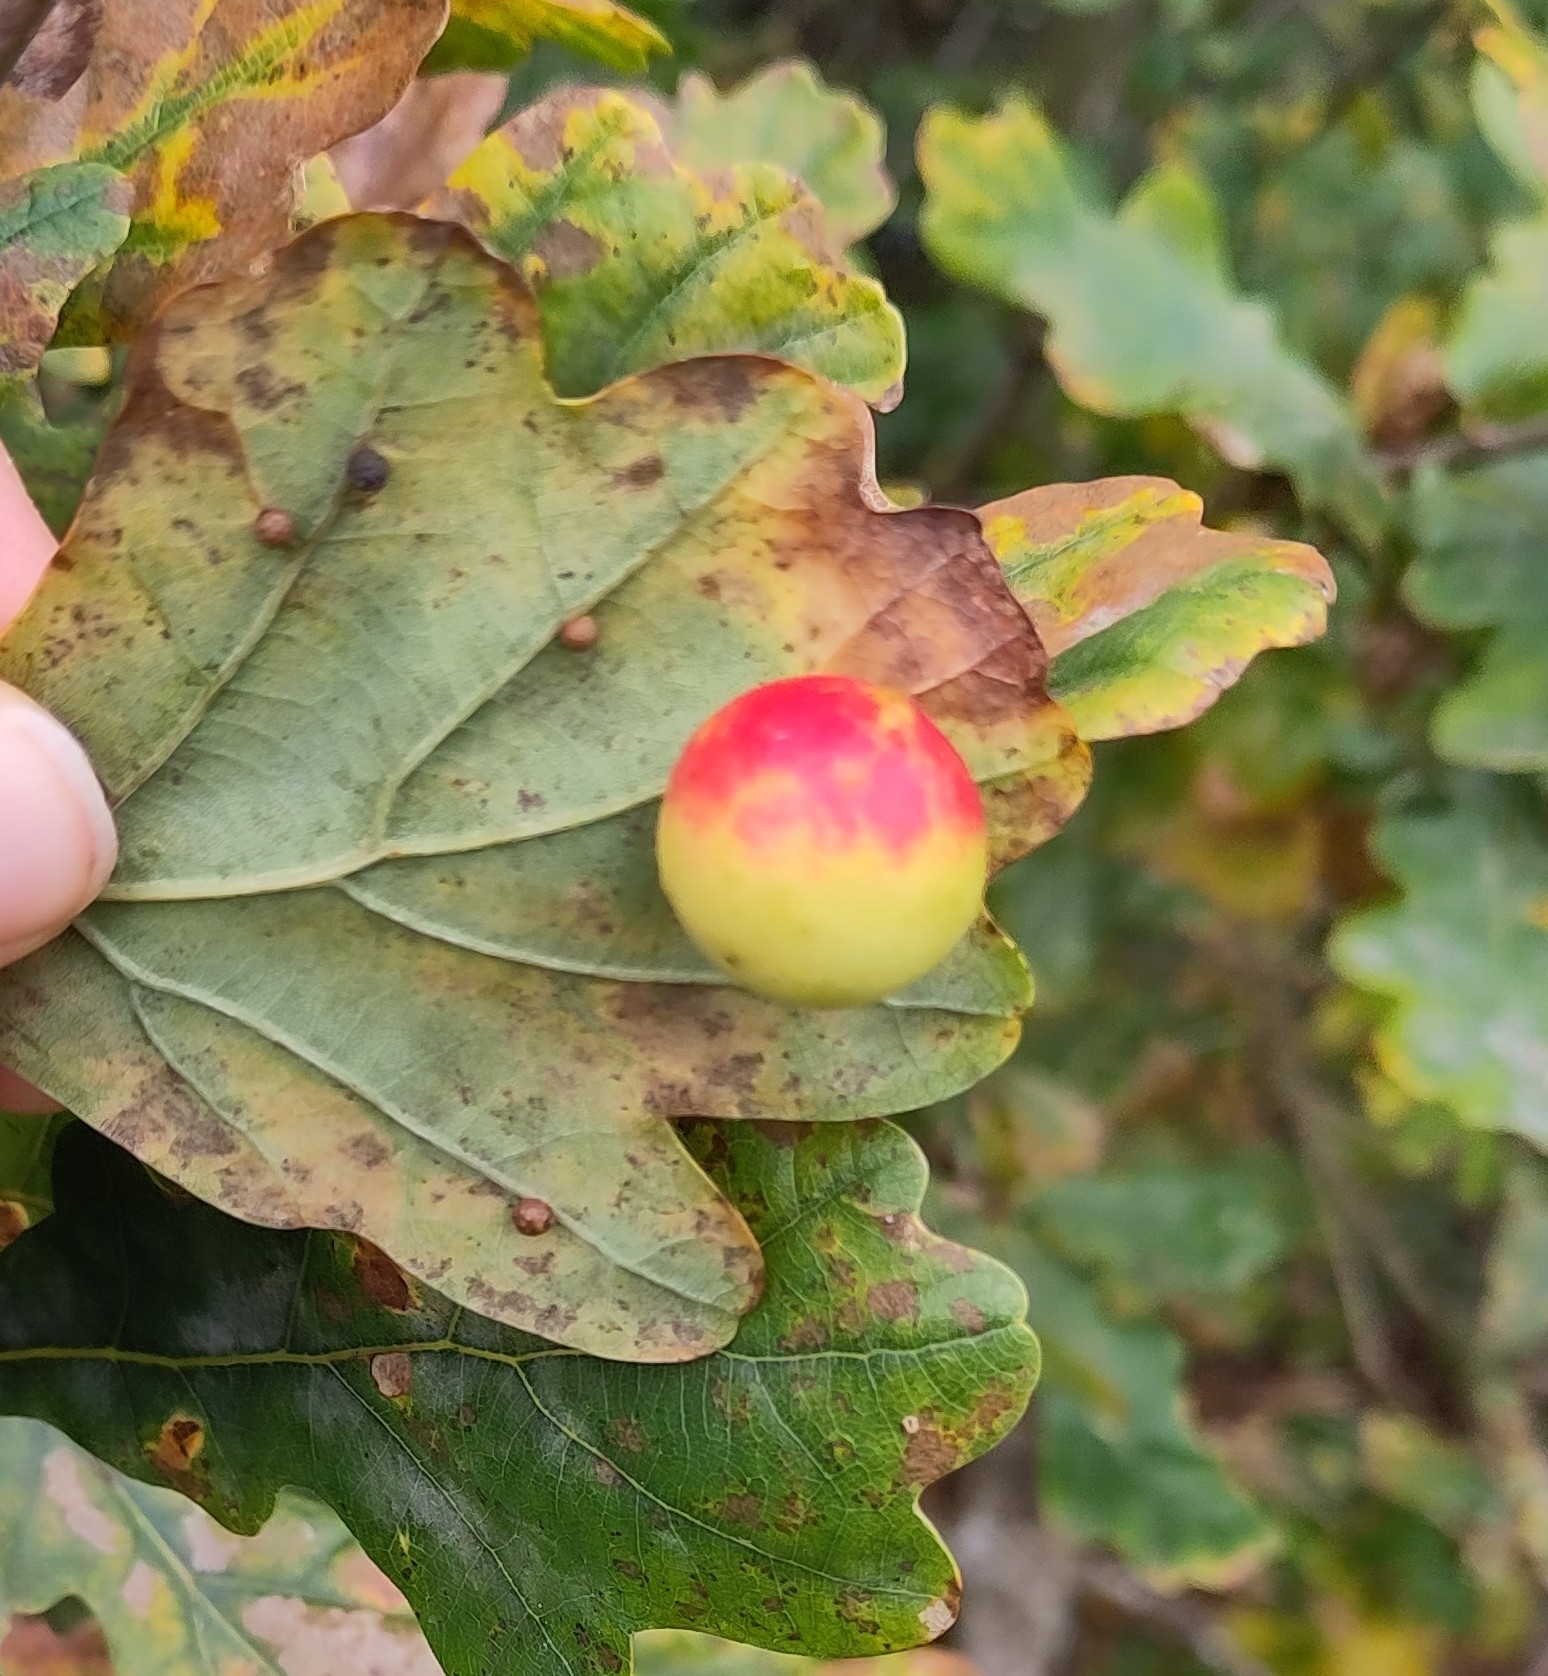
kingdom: Animalia
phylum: Arthropoda
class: Insecta
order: Hymenoptera
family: Cynipidae
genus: Cynips
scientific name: Cynips quercusfolii
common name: Cherry gall
